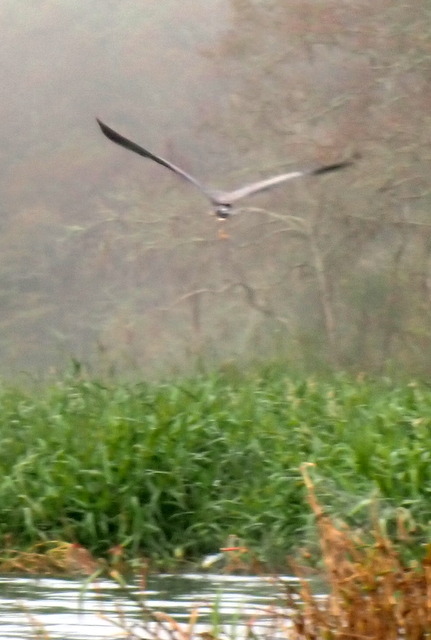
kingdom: Animalia
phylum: Chordata
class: Aves
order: Pelecaniformes
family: Ardeidae
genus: Ardea
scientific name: Ardea herodias
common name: Great blue heron
